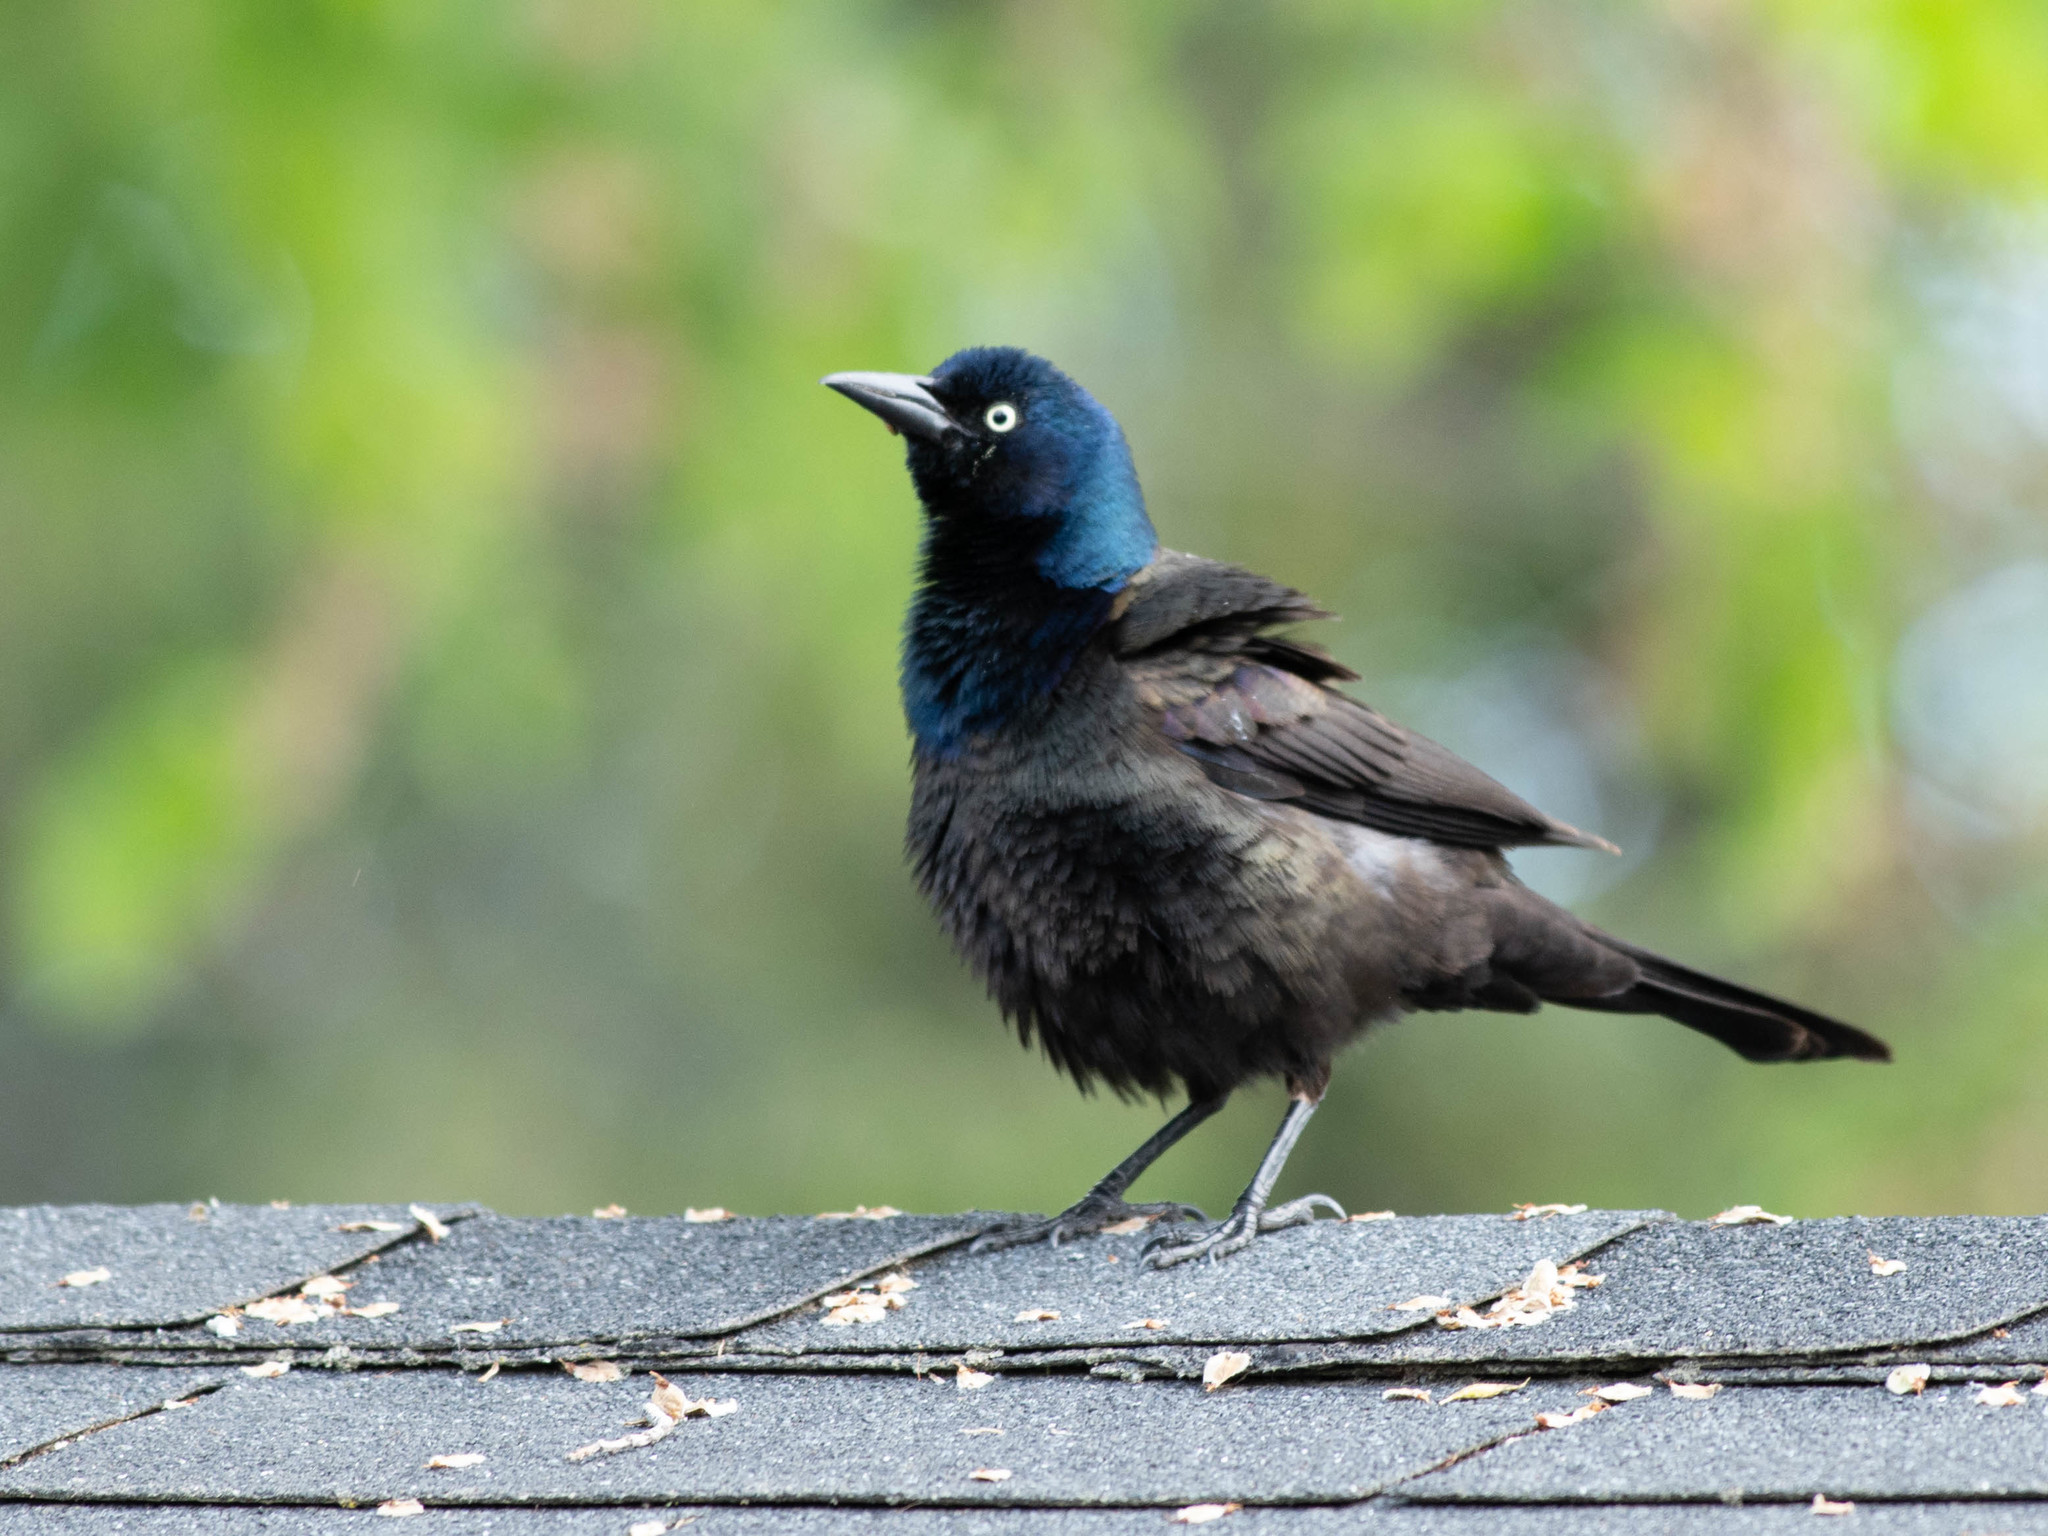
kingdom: Animalia
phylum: Chordata
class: Aves
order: Passeriformes
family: Icteridae
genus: Quiscalus
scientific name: Quiscalus quiscula
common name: Common grackle
